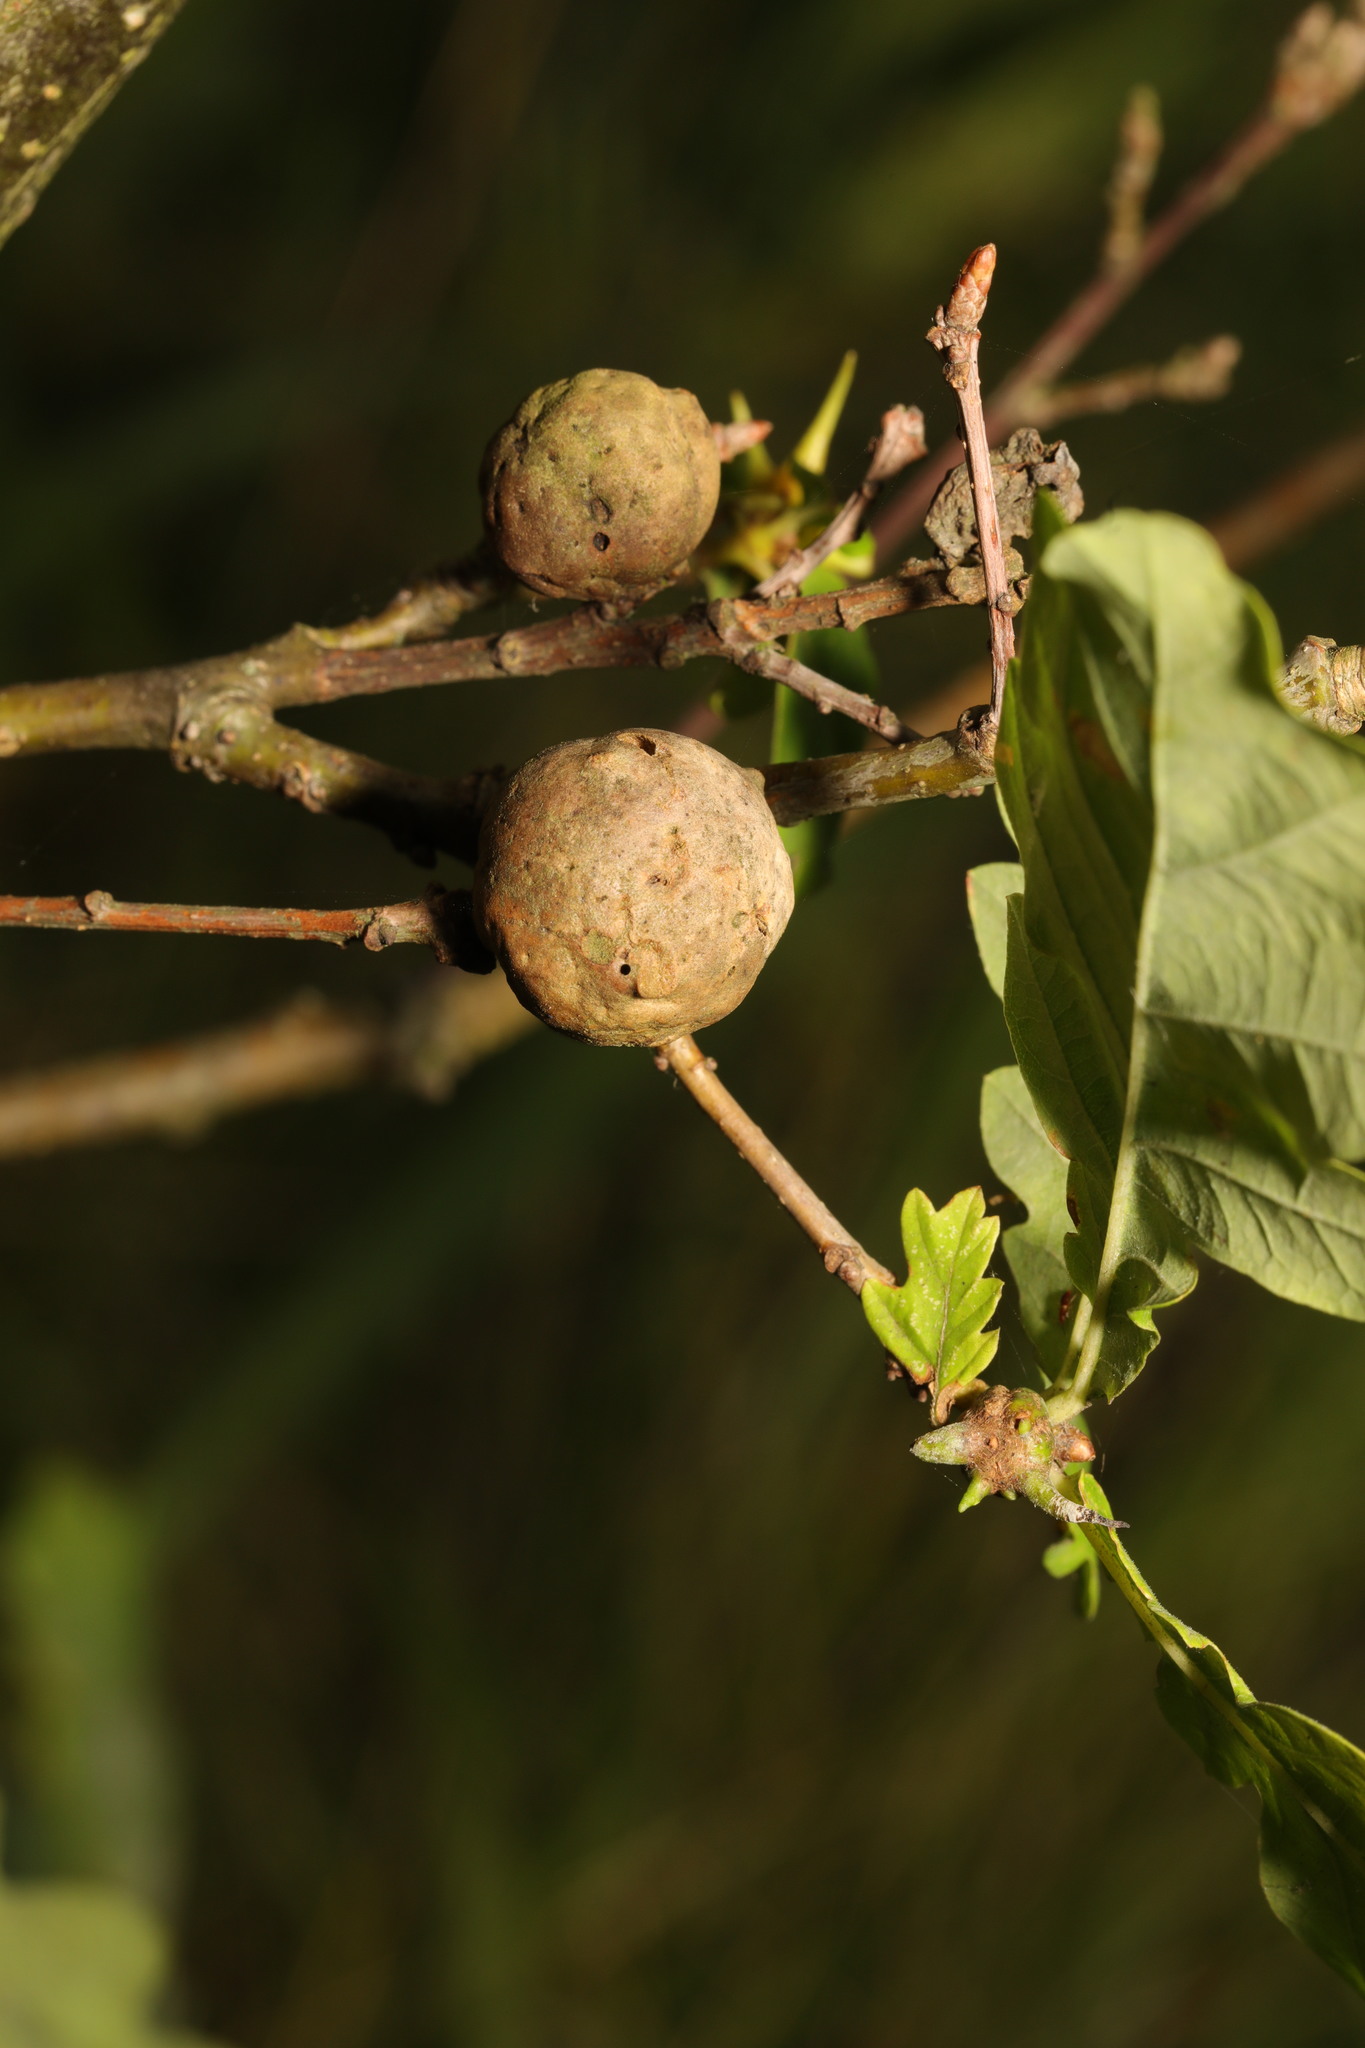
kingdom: Animalia
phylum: Arthropoda
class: Insecta
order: Hymenoptera
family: Cynipidae
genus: Andricus
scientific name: Andricus kollari
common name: Marble gall
